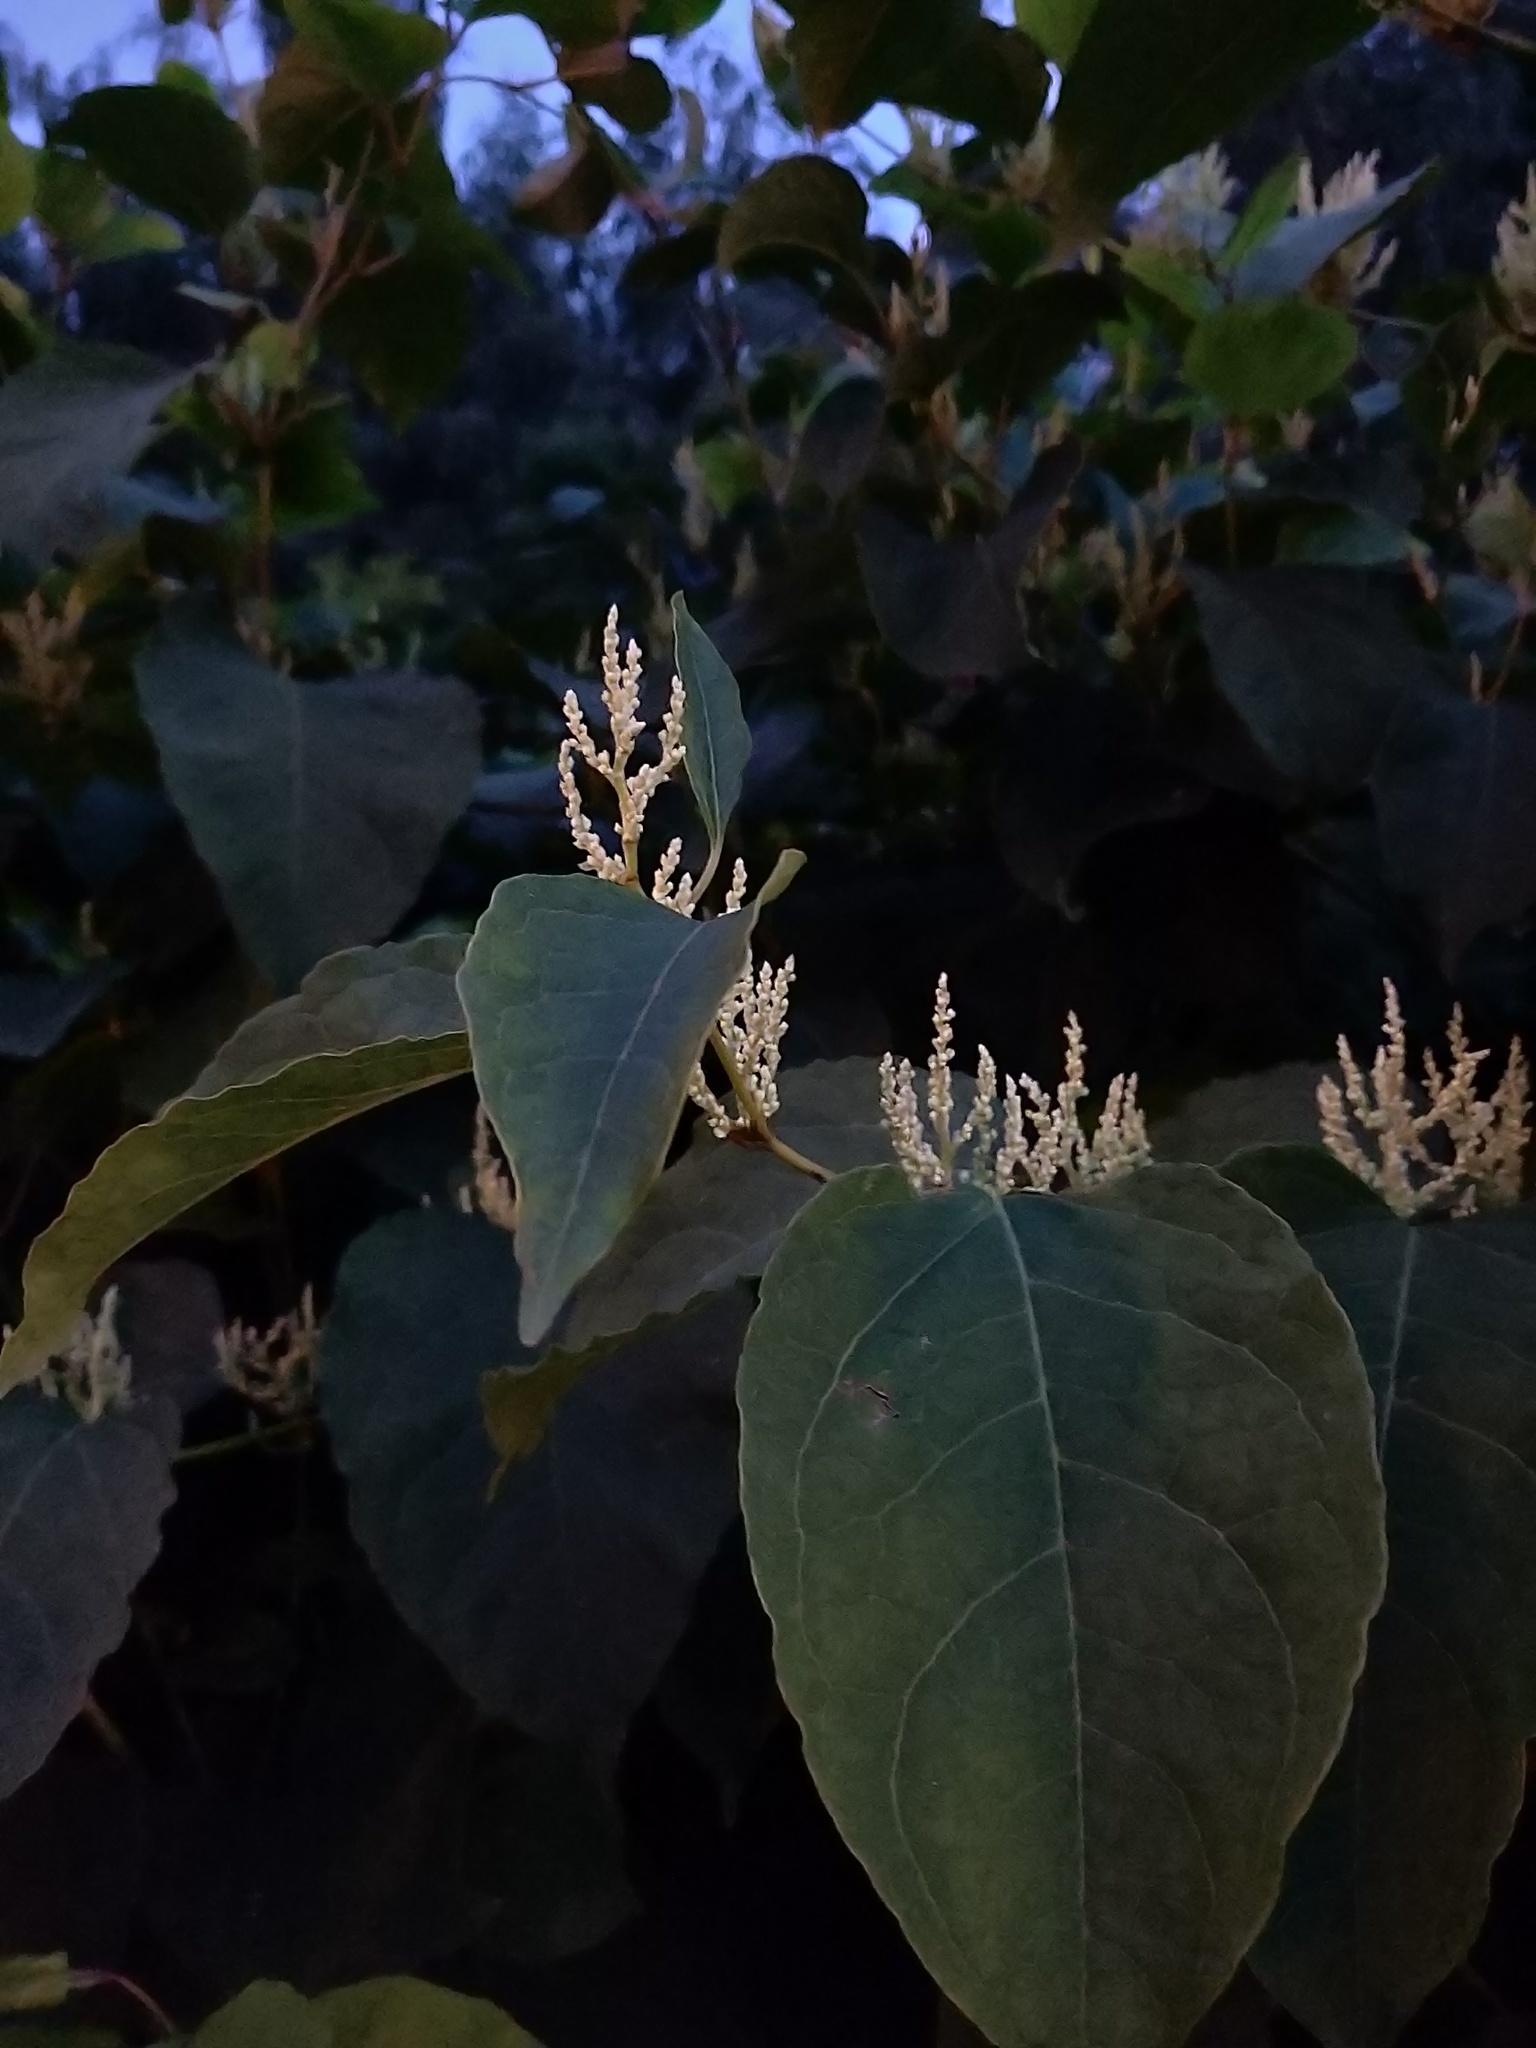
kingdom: Plantae
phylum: Tracheophyta
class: Magnoliopsida
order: Caryophyllales
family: Polygonaceae
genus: Reynoutria
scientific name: Reynoutria bohemica
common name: Bohemian knotweed
